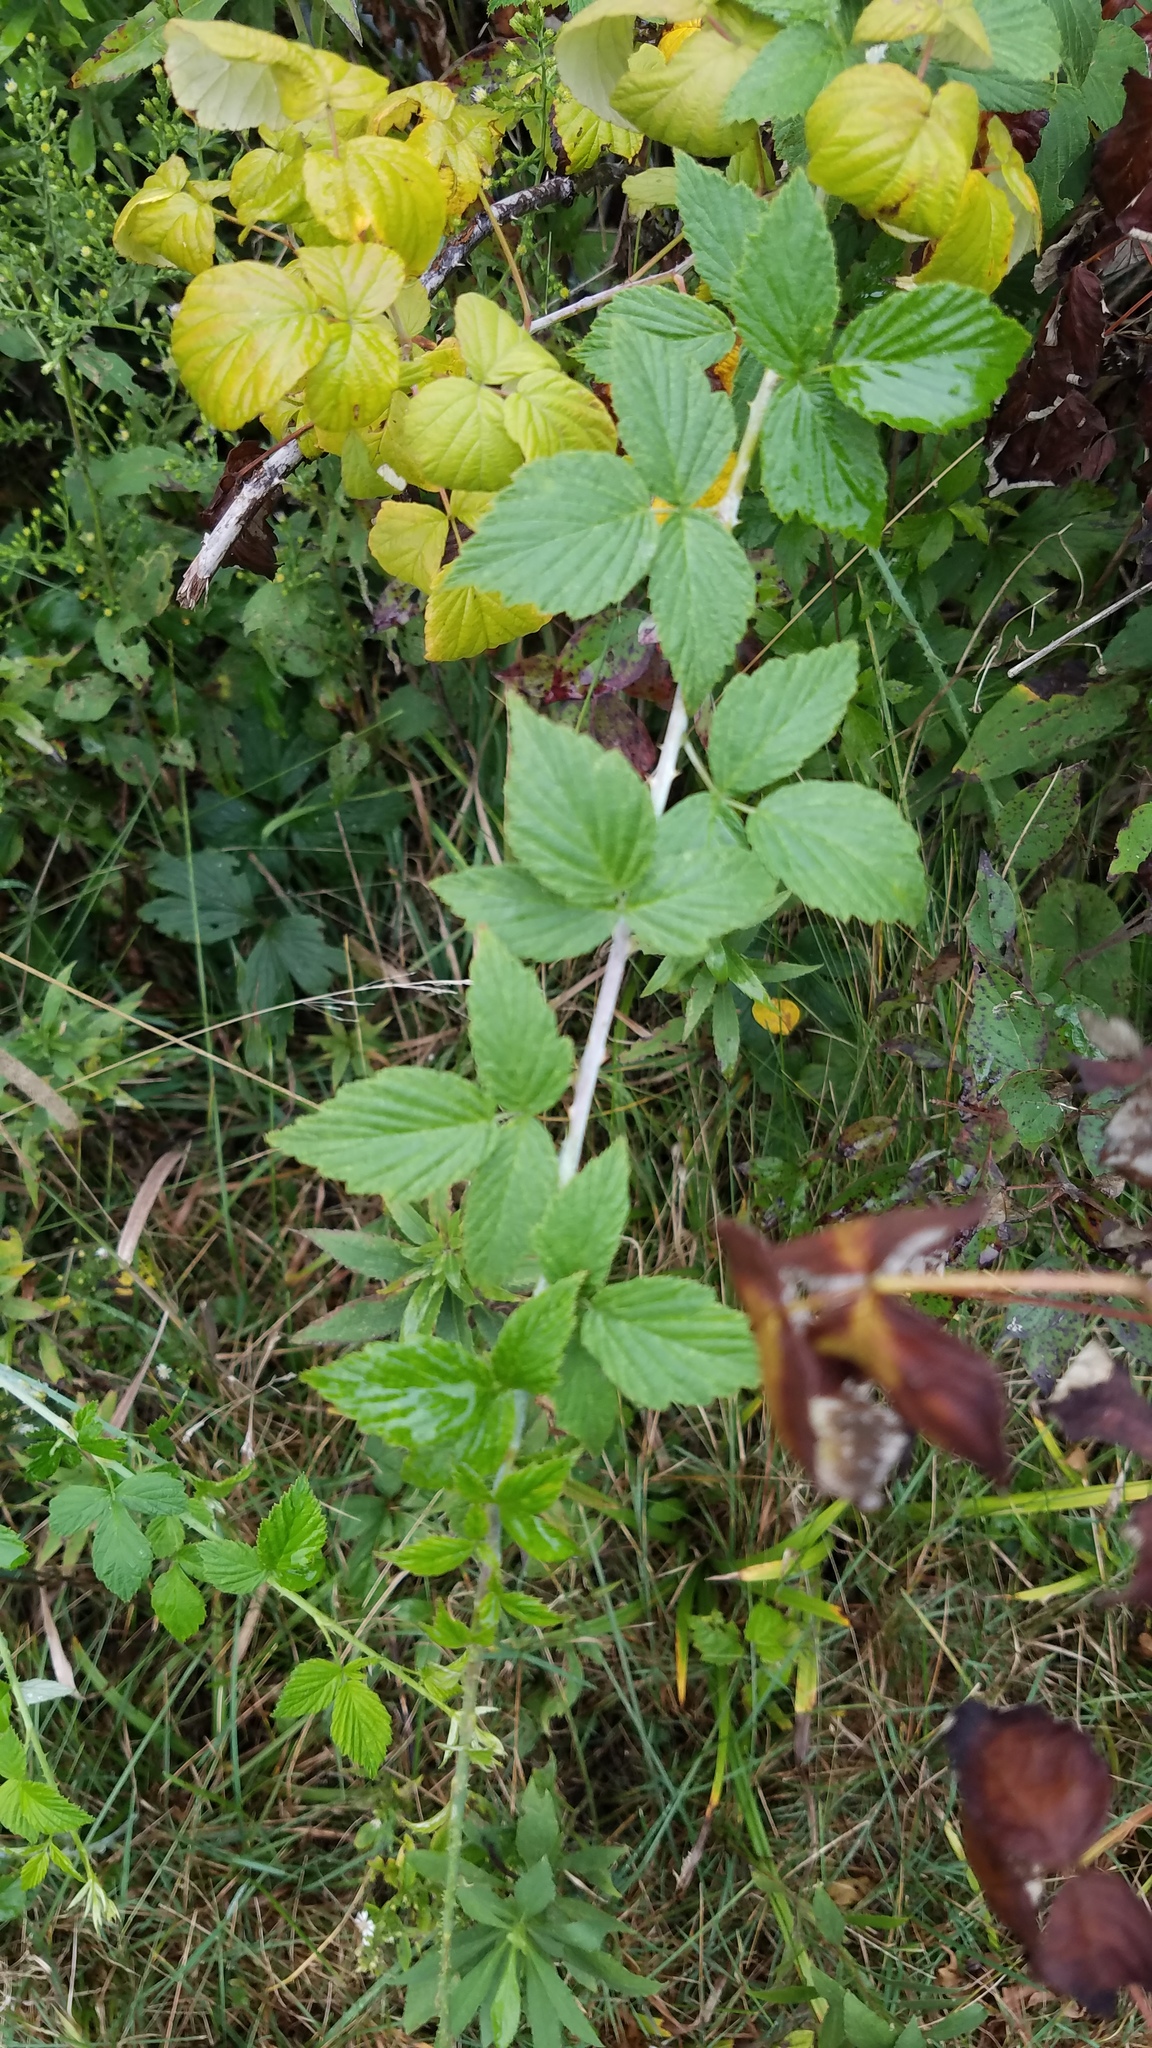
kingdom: Plantae
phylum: Tracheophyta
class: Magnoliopsida
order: Rosales
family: Rosaceae
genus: Rubus
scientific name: Rubus occidentalis
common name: Black raspberry
